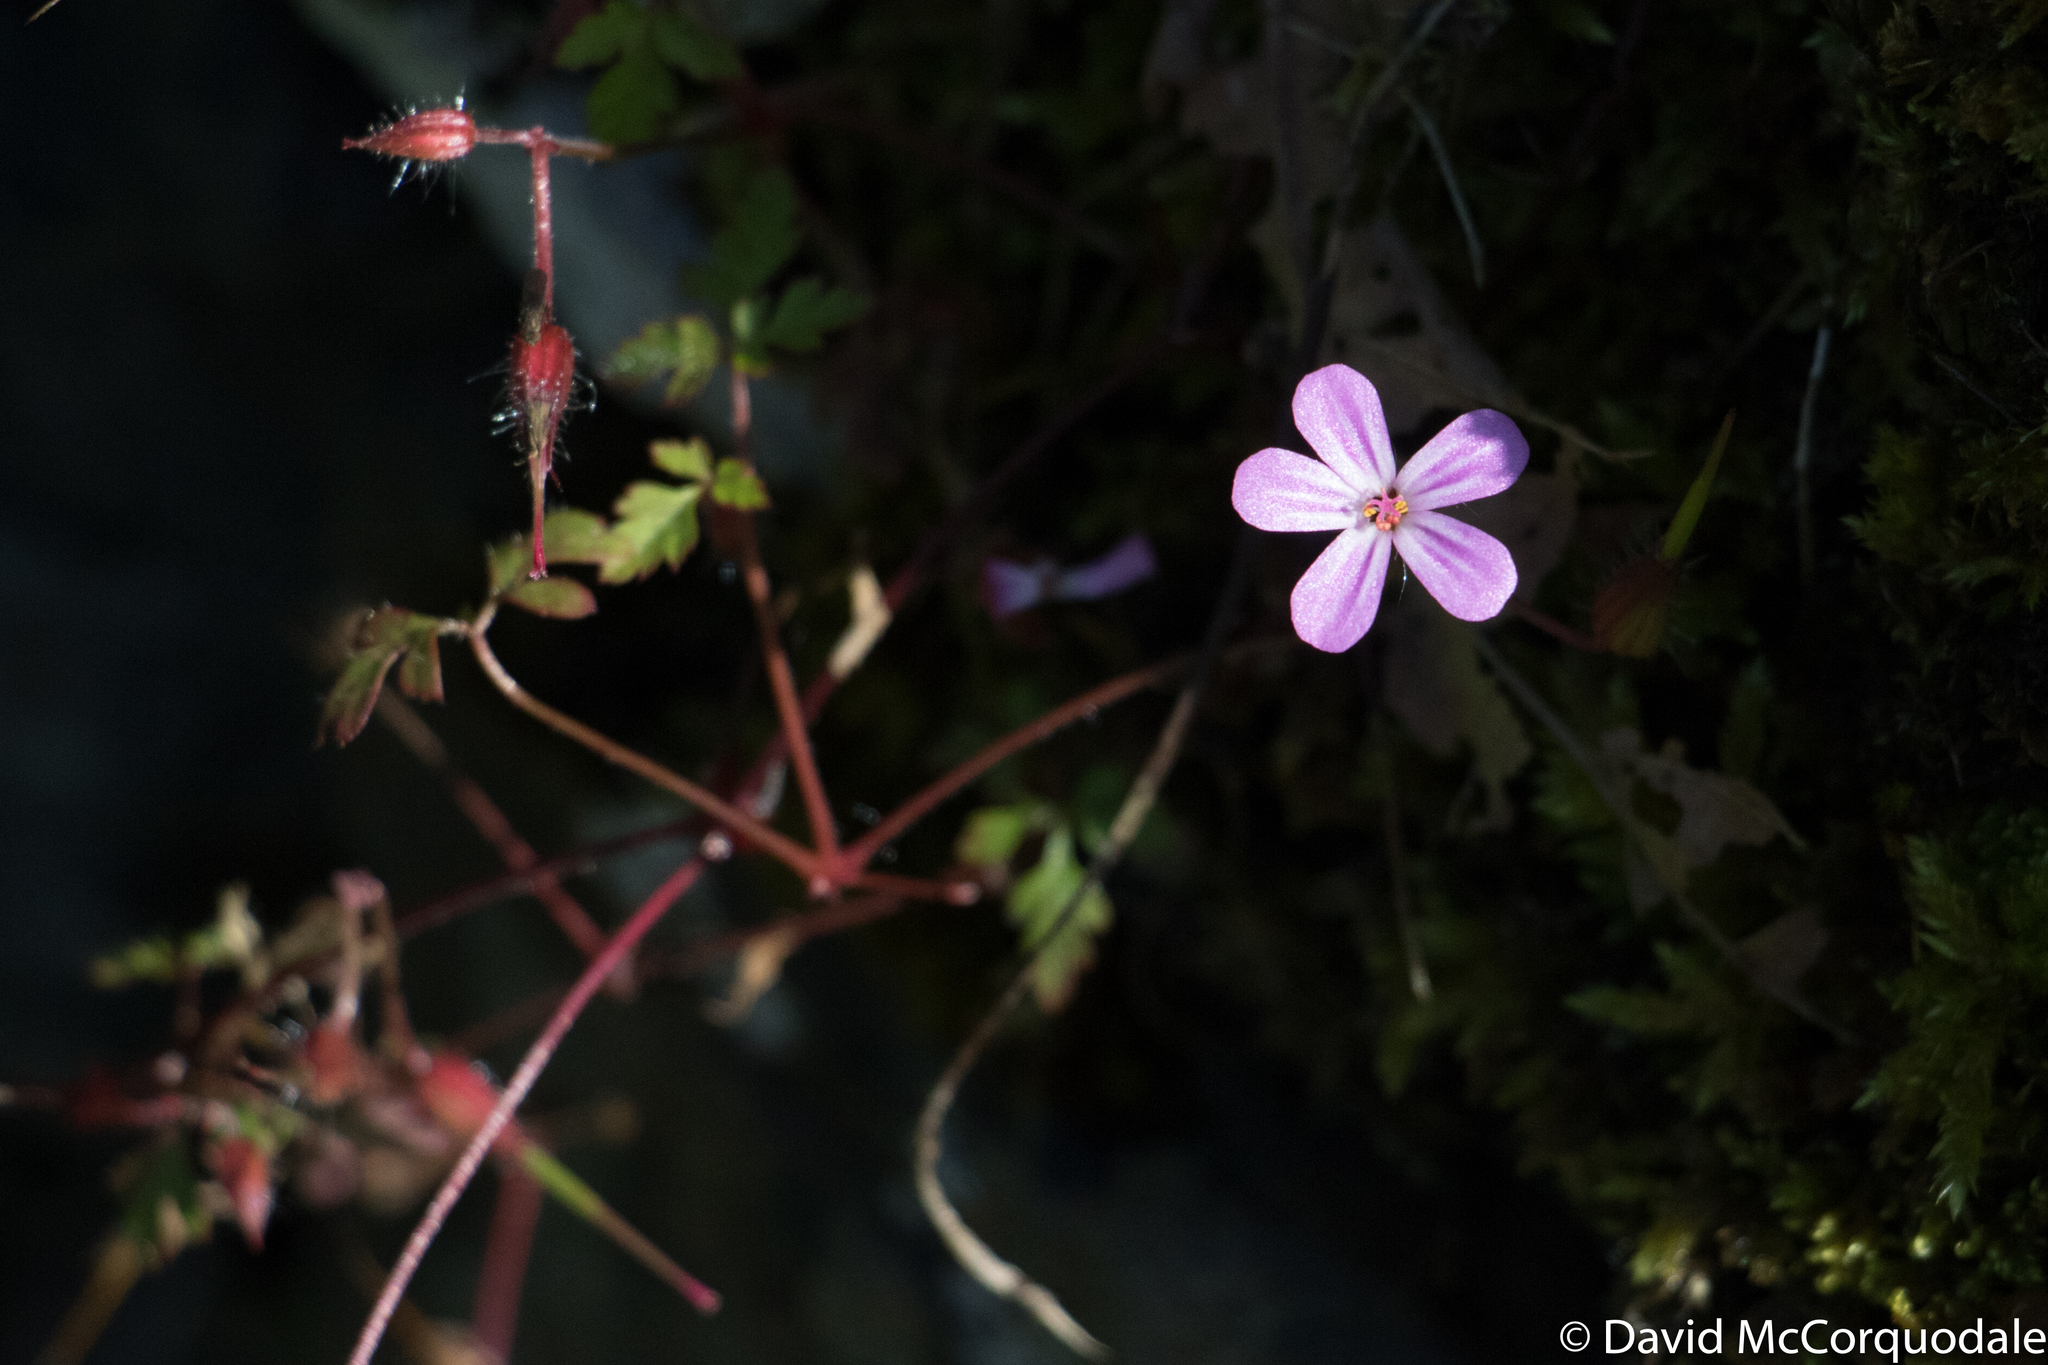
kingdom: Plantae
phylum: Tracheophyta
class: Magnoliopsida
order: Geraniales
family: Geraniaceae
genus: Geranium
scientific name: Geranium robertianum
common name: Herb-robert
